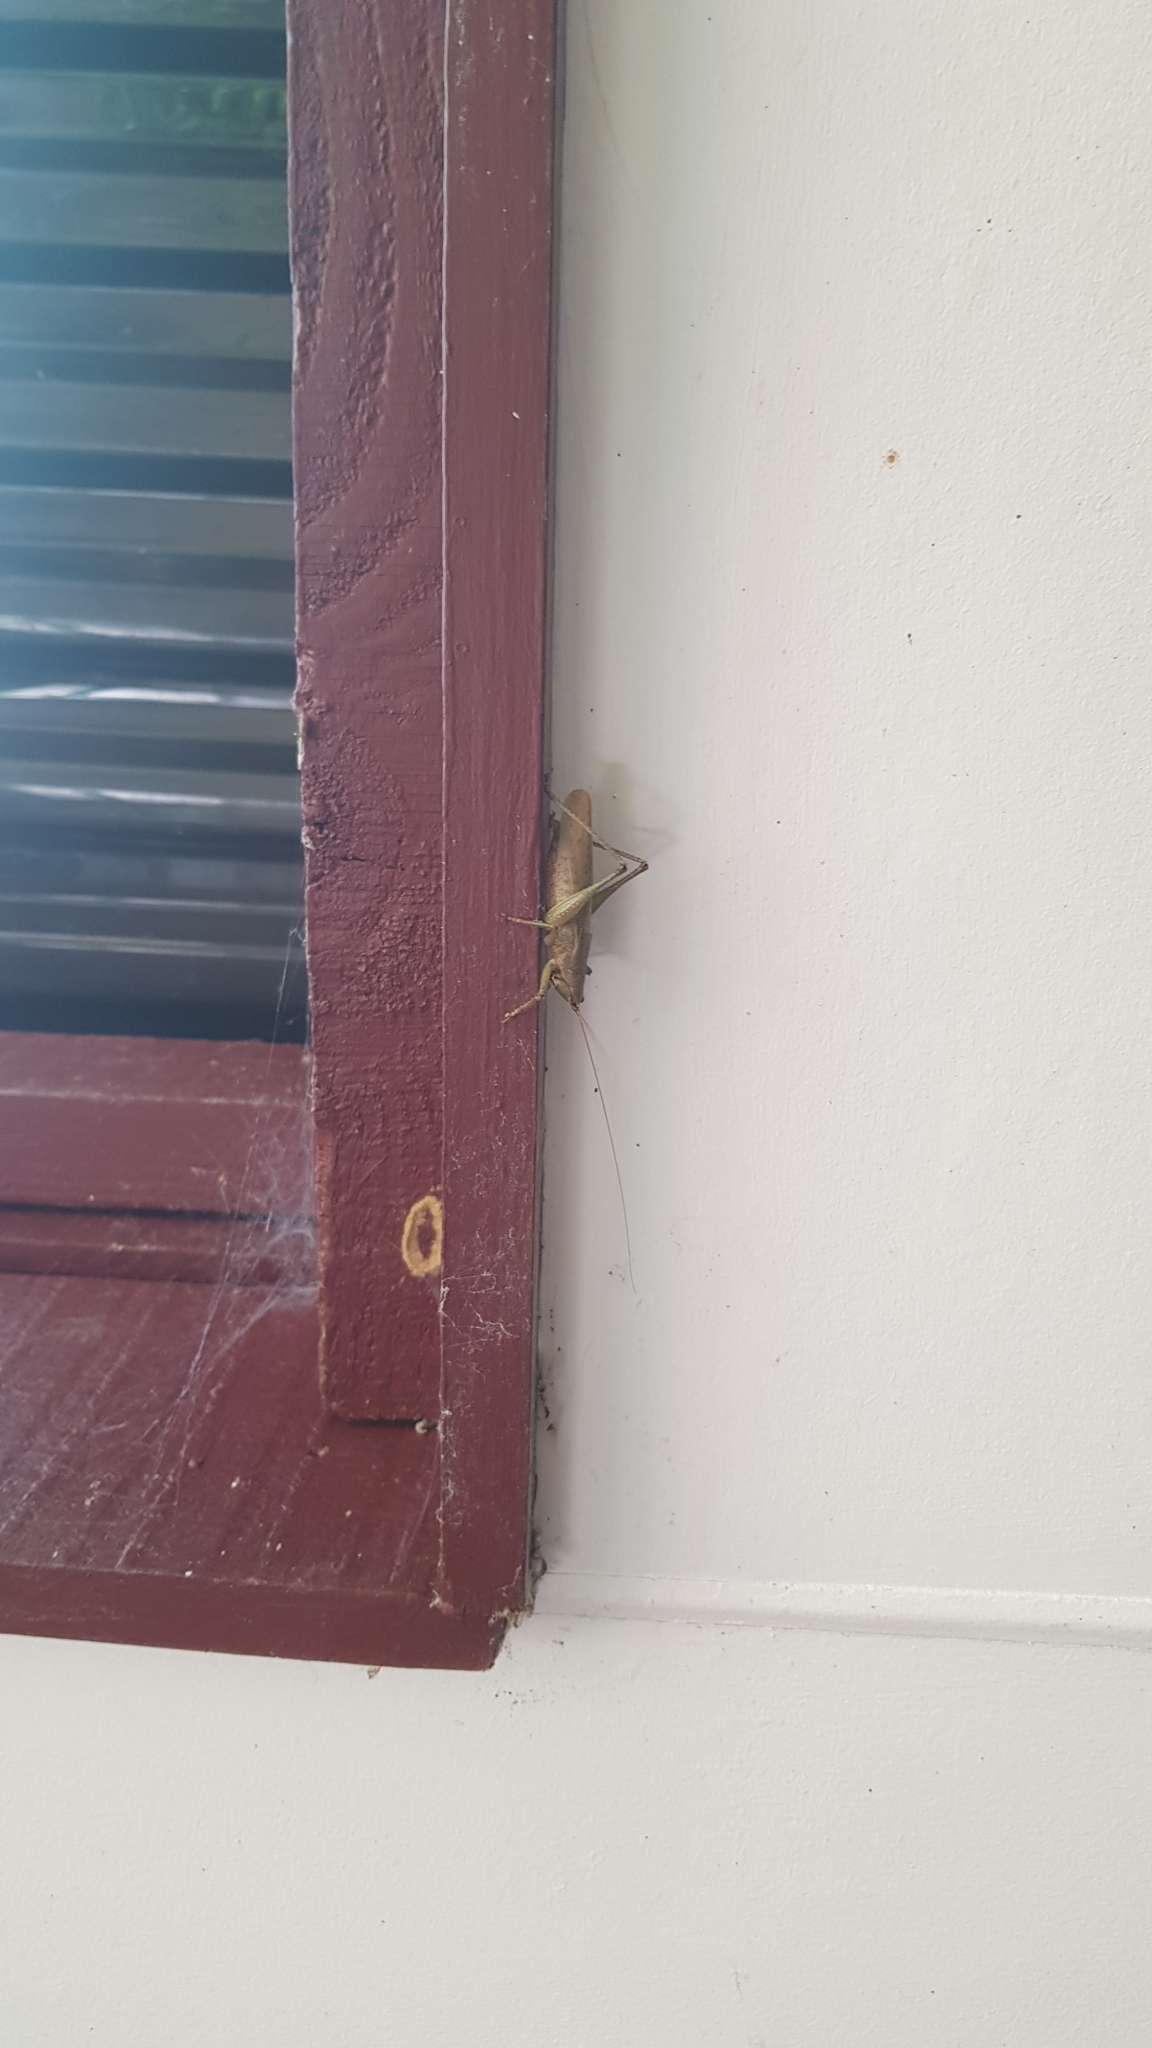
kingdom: Animalia
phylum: Arthropoda
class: Insecta
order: Orthoptera
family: Tettigoniidae
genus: Austrosalomona
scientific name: Austrosalomona falcata
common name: Olive-green coastal katydid
